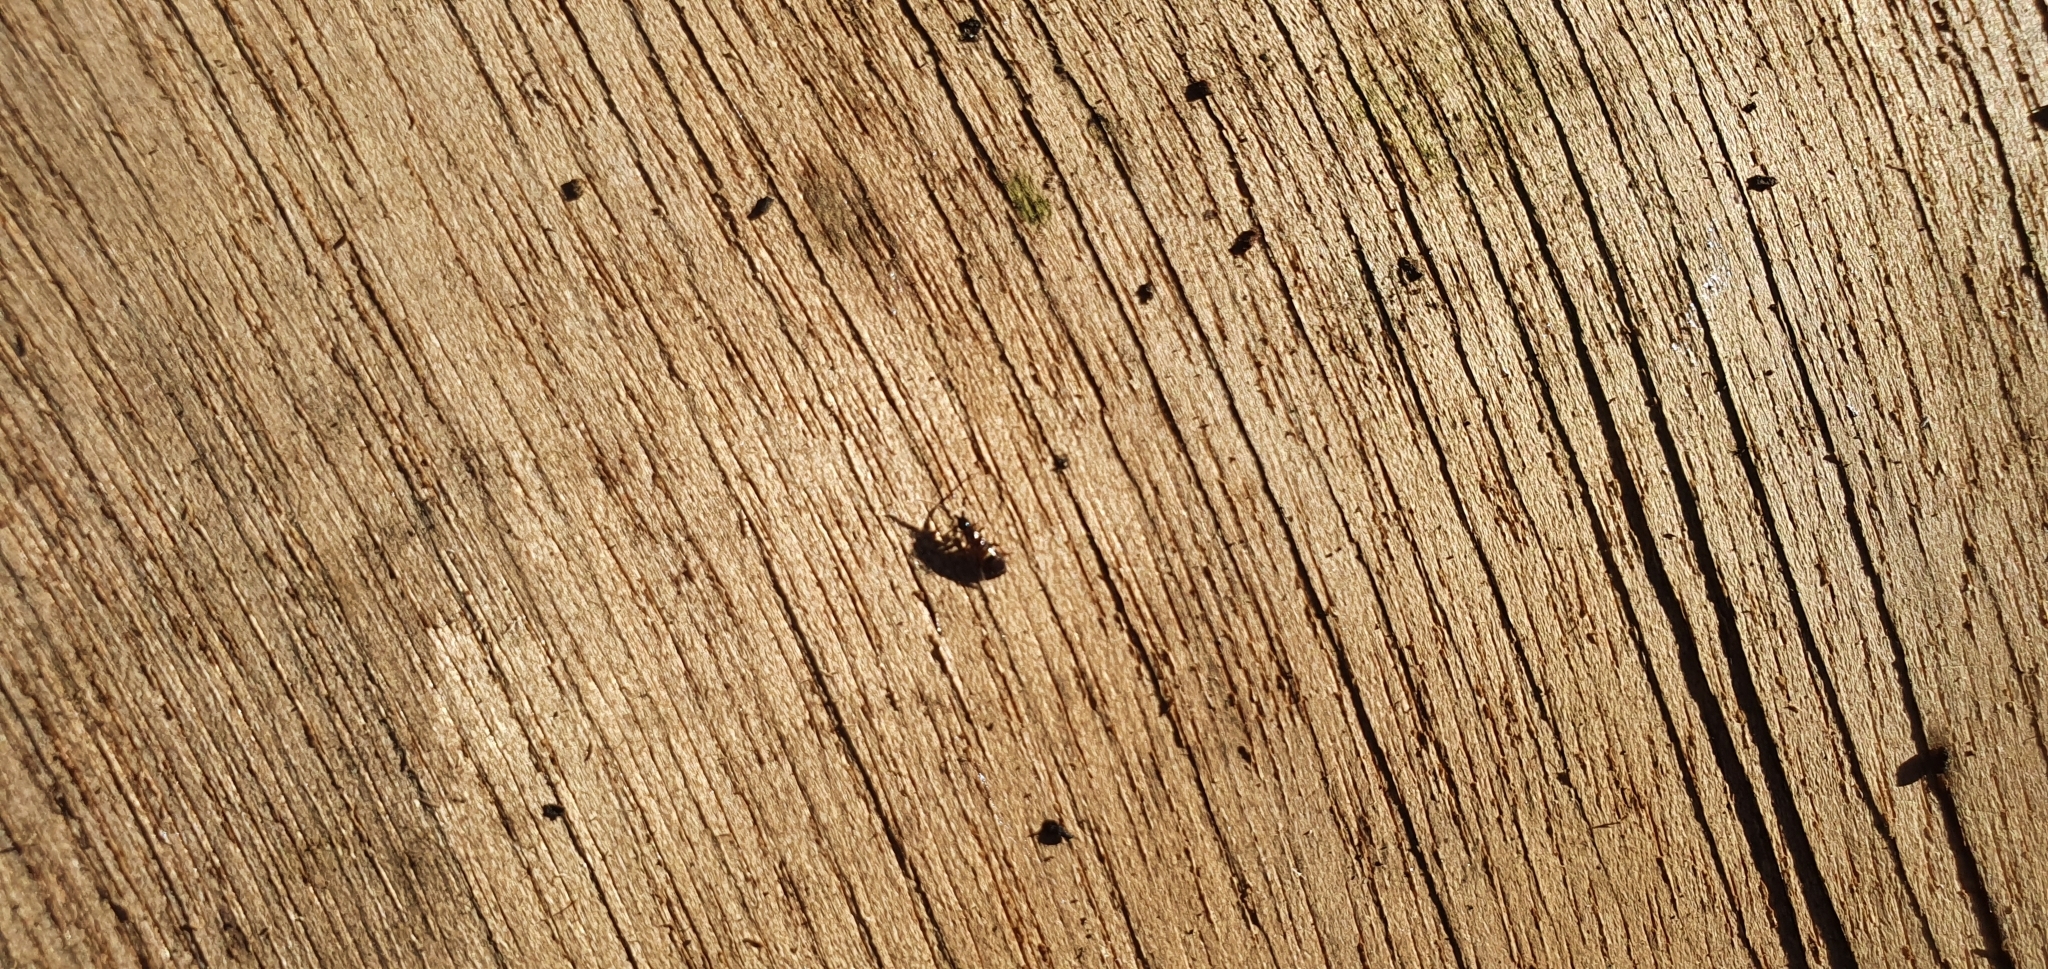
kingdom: Animalia
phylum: Arthropoda
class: Collembola
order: Entomobryomorpha
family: Orchesellidae
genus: Orchesella
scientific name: Orchesella cincta
